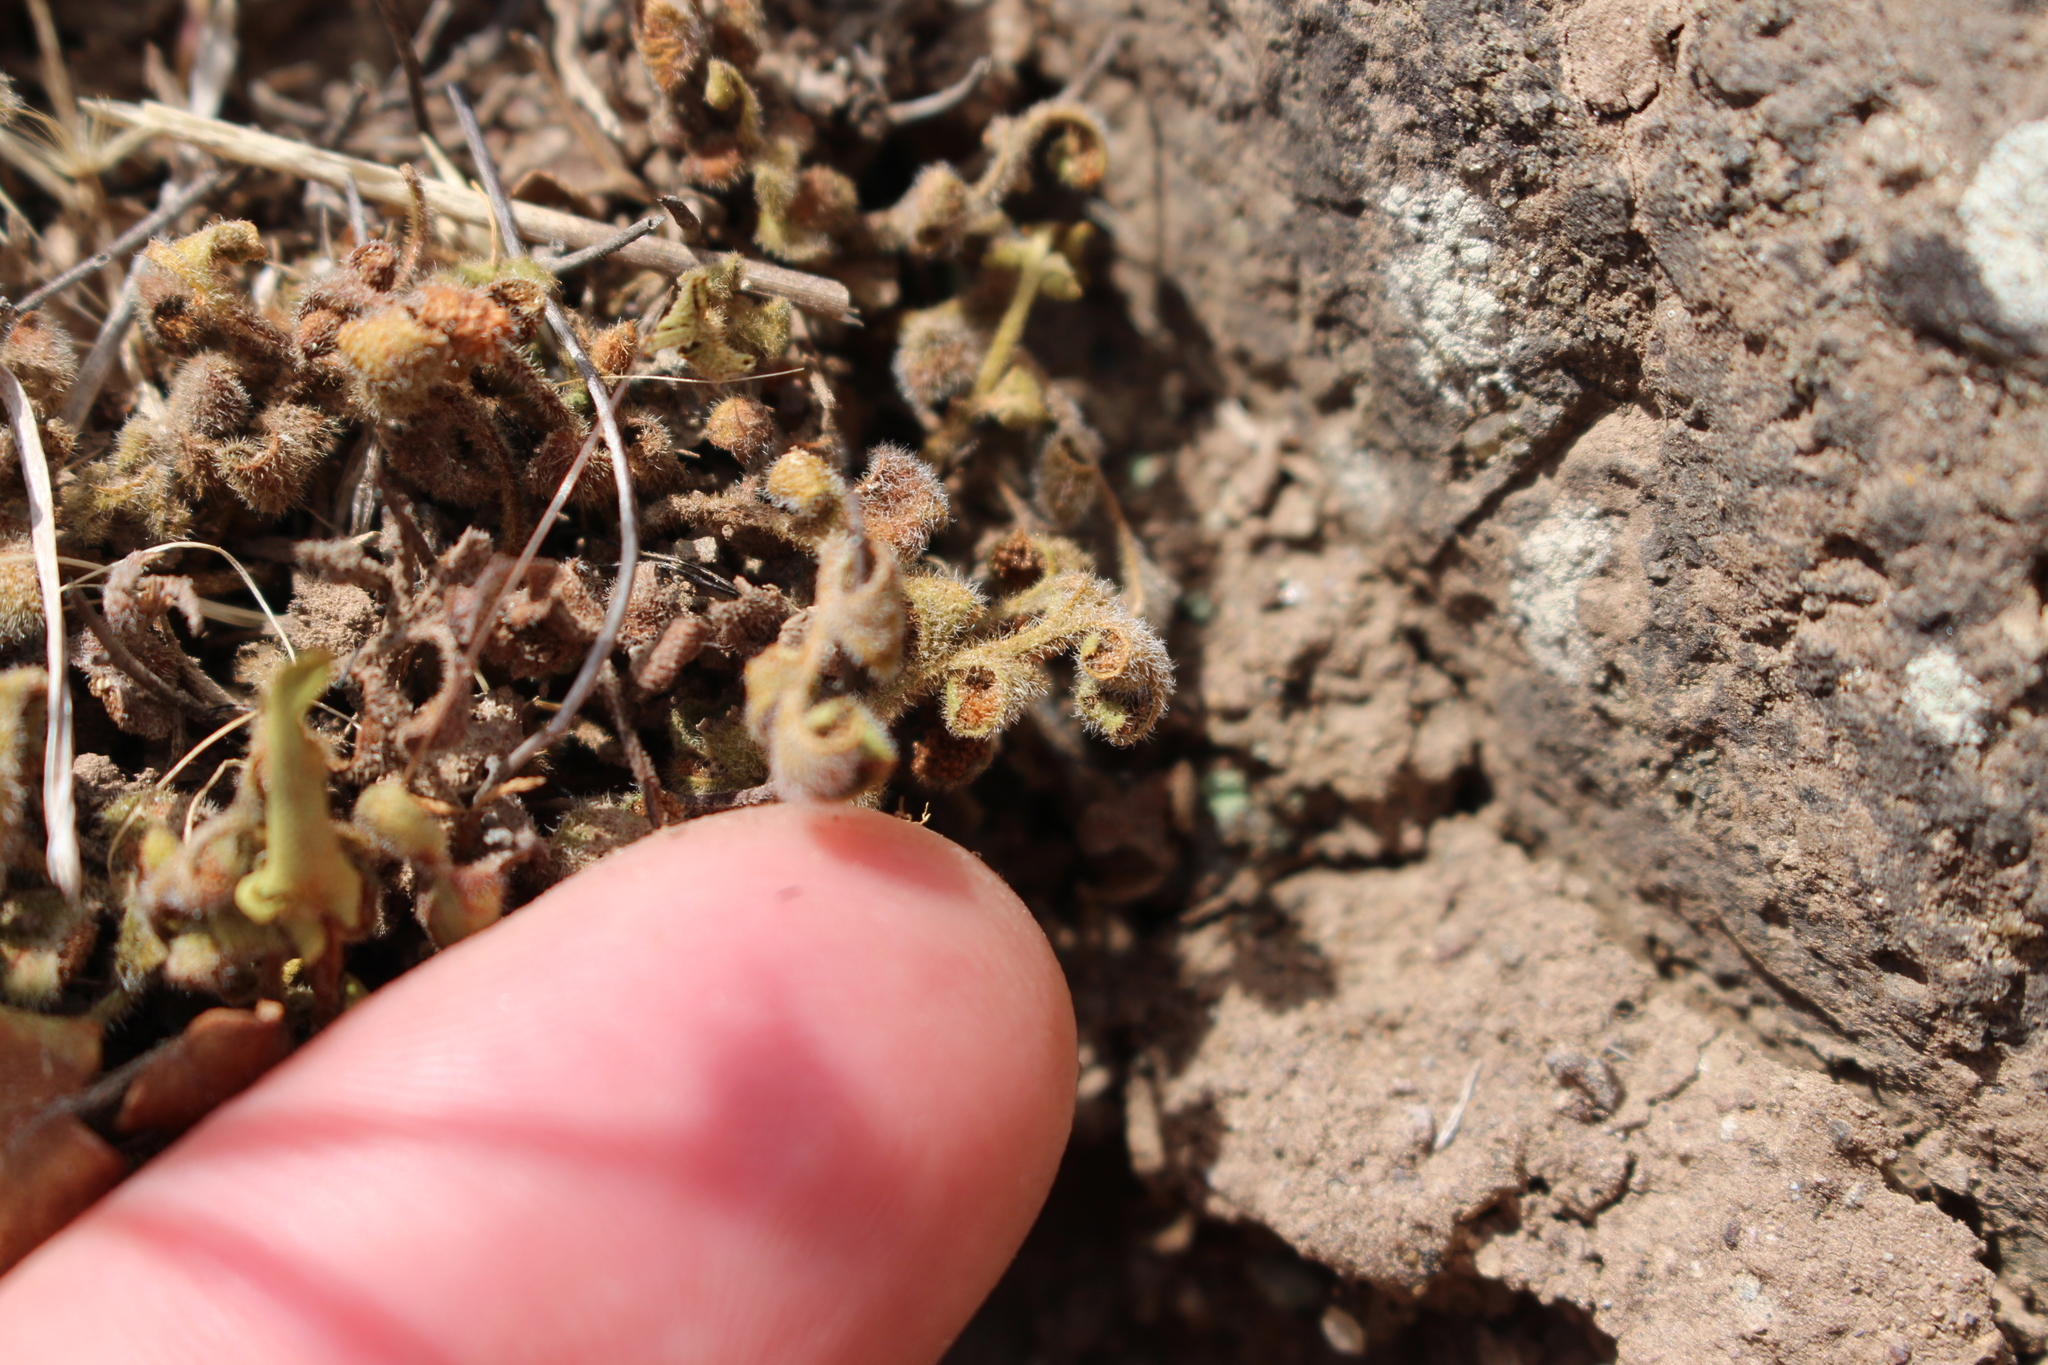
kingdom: Plantae
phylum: Tracheophyta
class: Polypodiopsida
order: Polypodiales
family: Aspleniaceae
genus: Asplenium
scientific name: Asplenium subglandulosum
